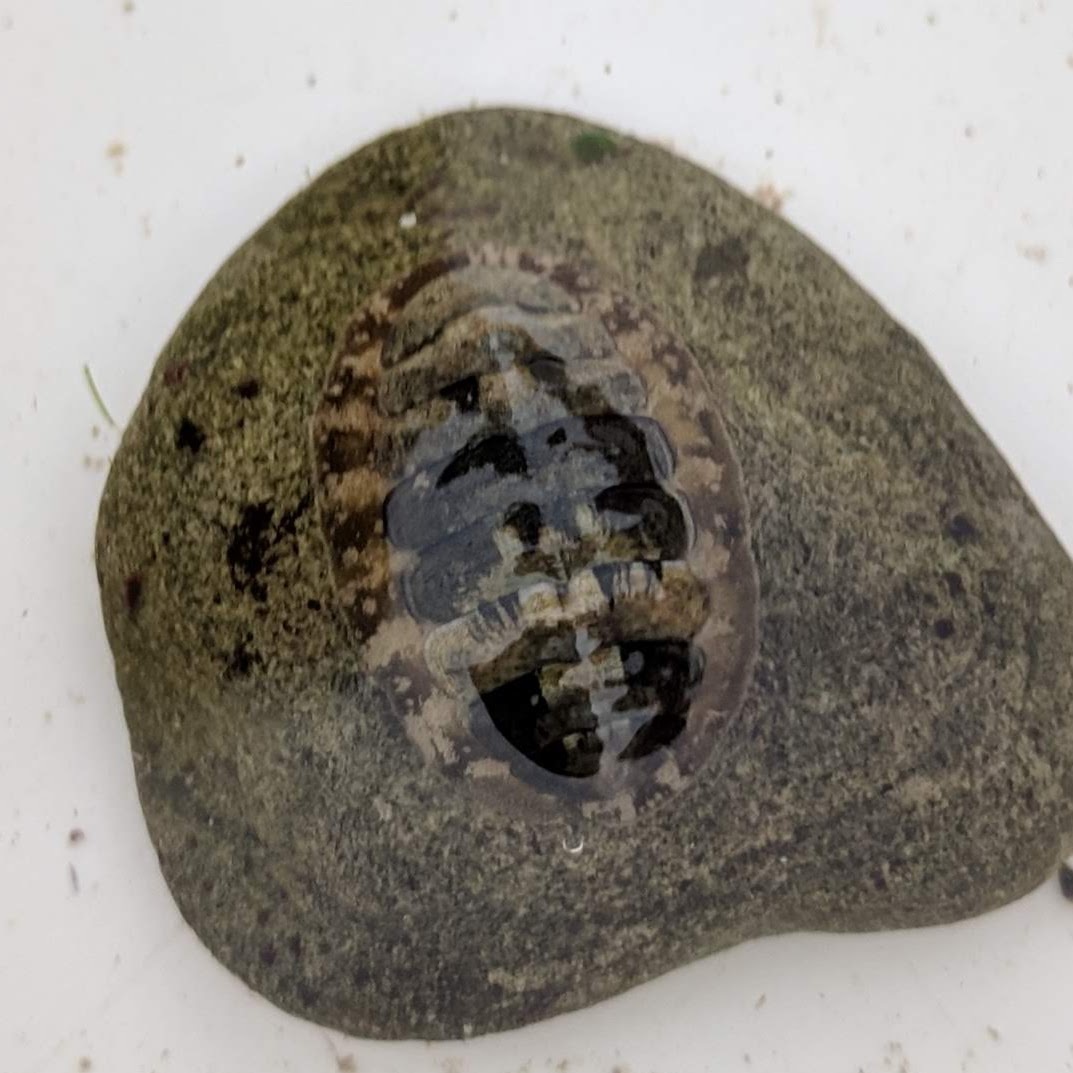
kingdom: Animalia
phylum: Mollusca
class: Polyplacophora
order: Chitonida
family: Tonicellidae
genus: Cyanoplax
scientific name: Cyanoplax hartwegii
